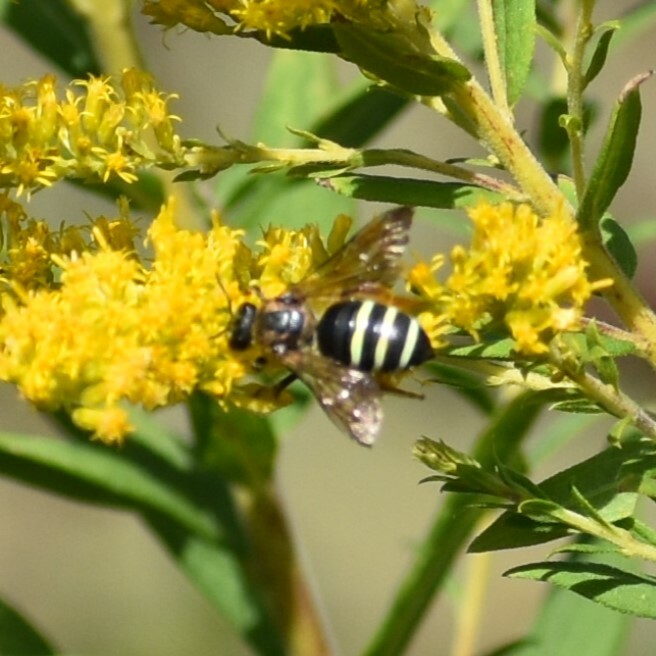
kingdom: Animalia
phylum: Arthropoda
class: Insecta
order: Hymenoptera
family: Halictidae
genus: Nomia
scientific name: Nomia nortoni
